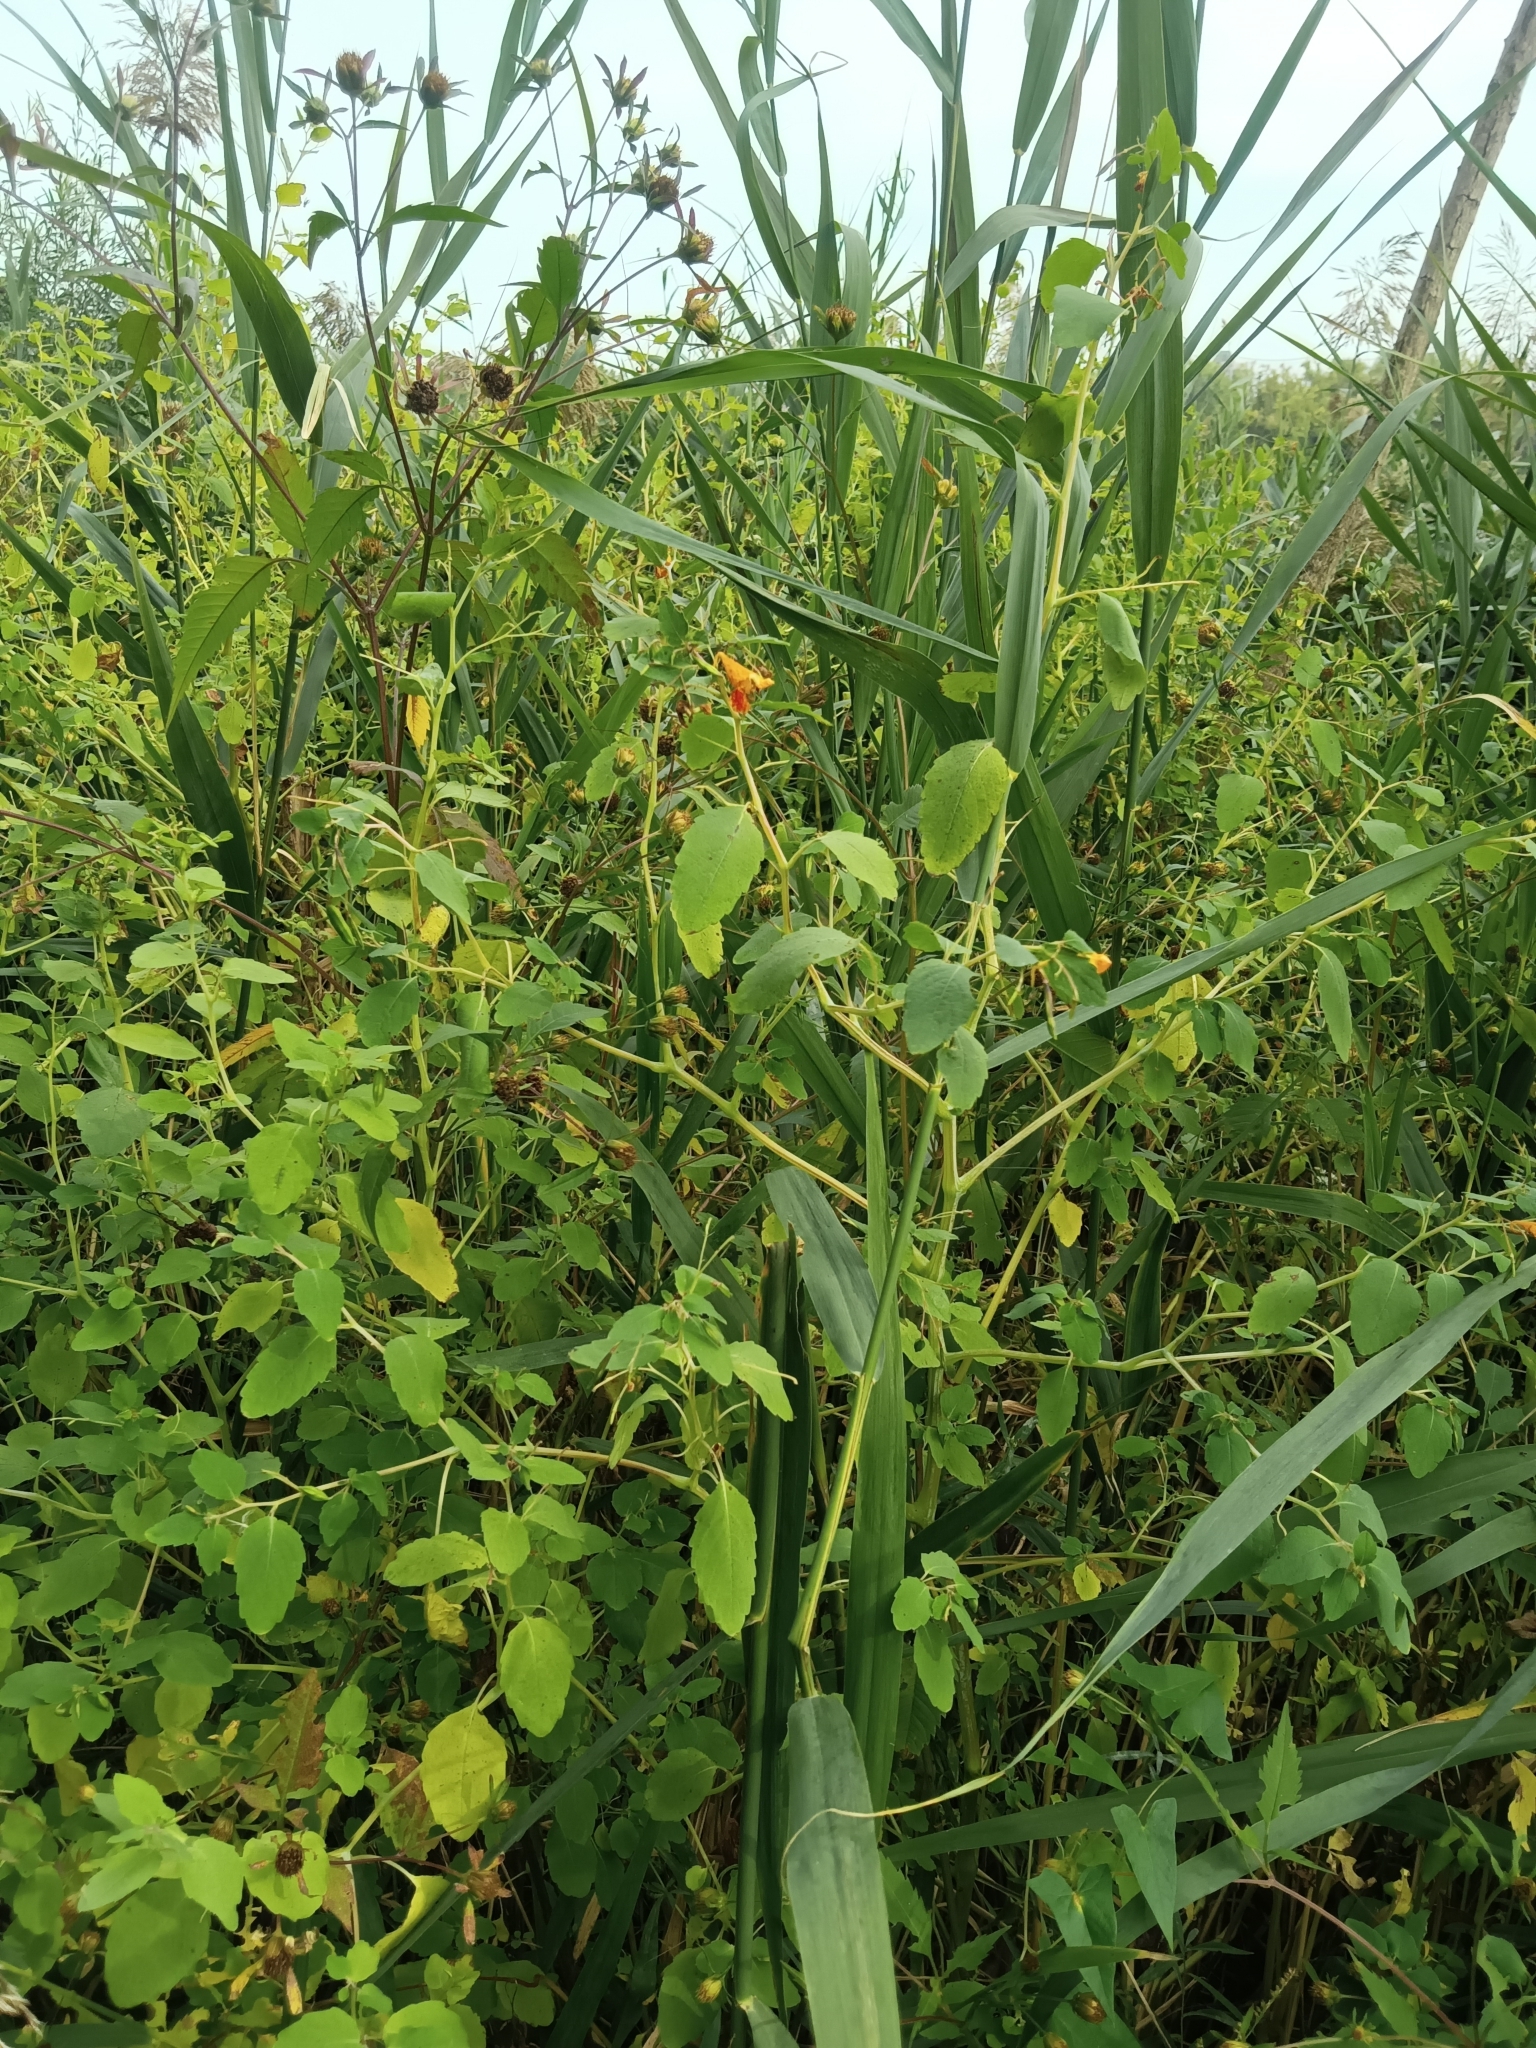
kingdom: Plantae
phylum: Tracheophyta
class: Magnoliopsida
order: Ericales
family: Balsaminaceae
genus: Impatiens
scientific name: Impatiens capensis
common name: Orange balsam
